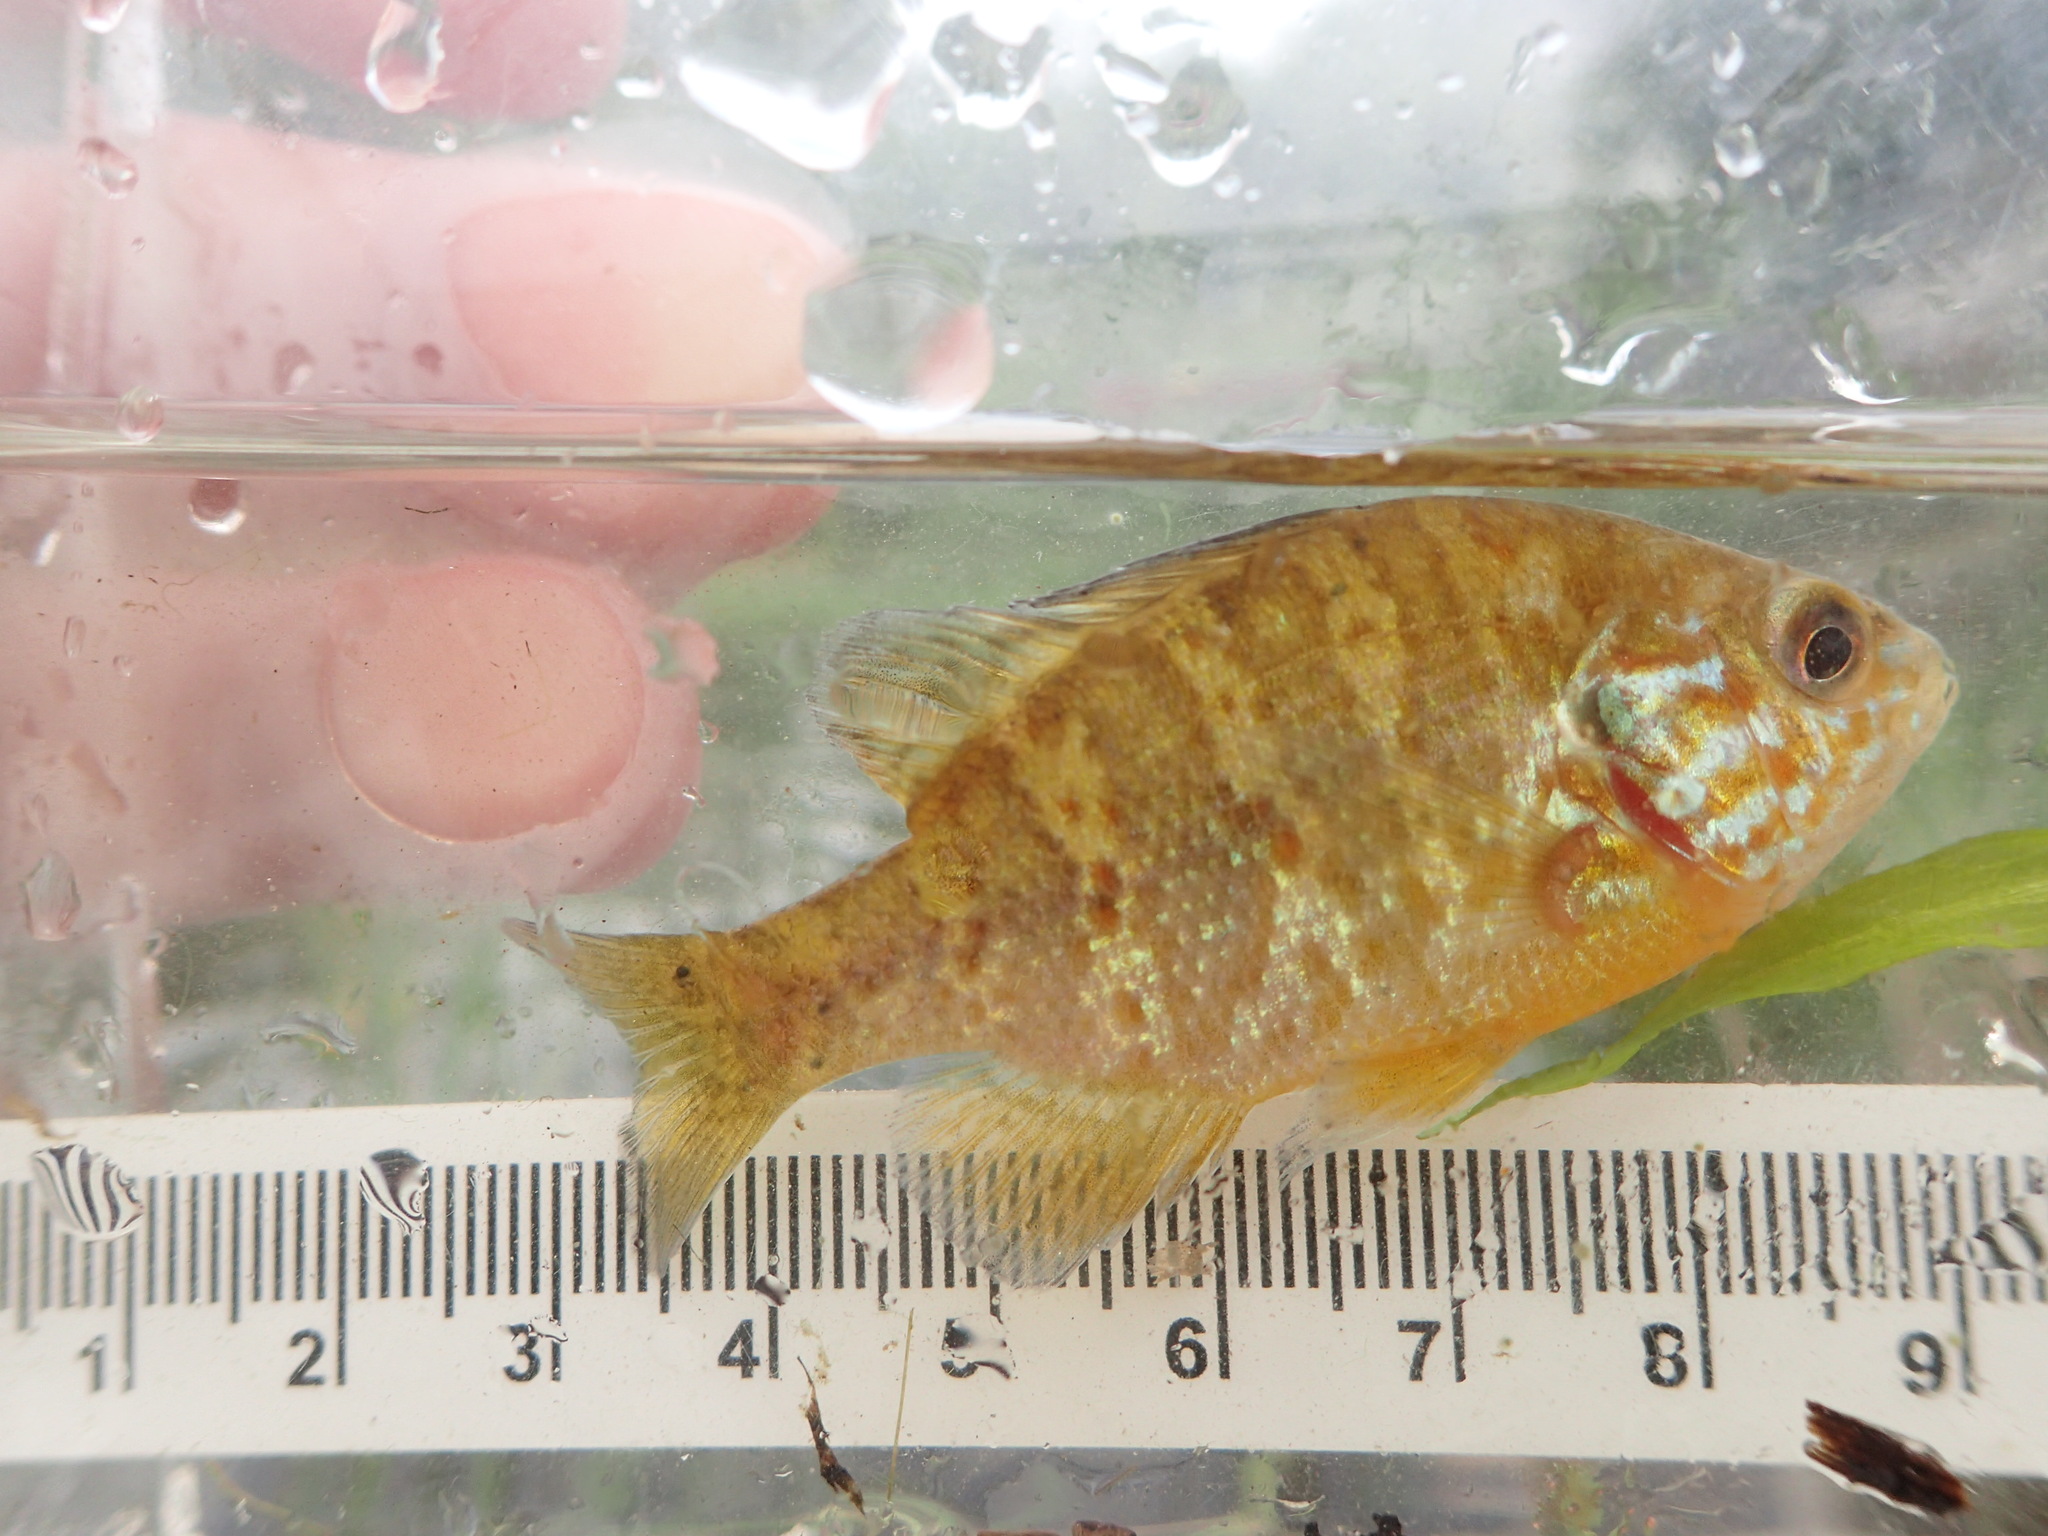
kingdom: Animalia
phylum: Chordata
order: Perciformes
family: Centrarchidae
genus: Lepomis
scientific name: Lepomis gibbosus
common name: Pumpkinseed
